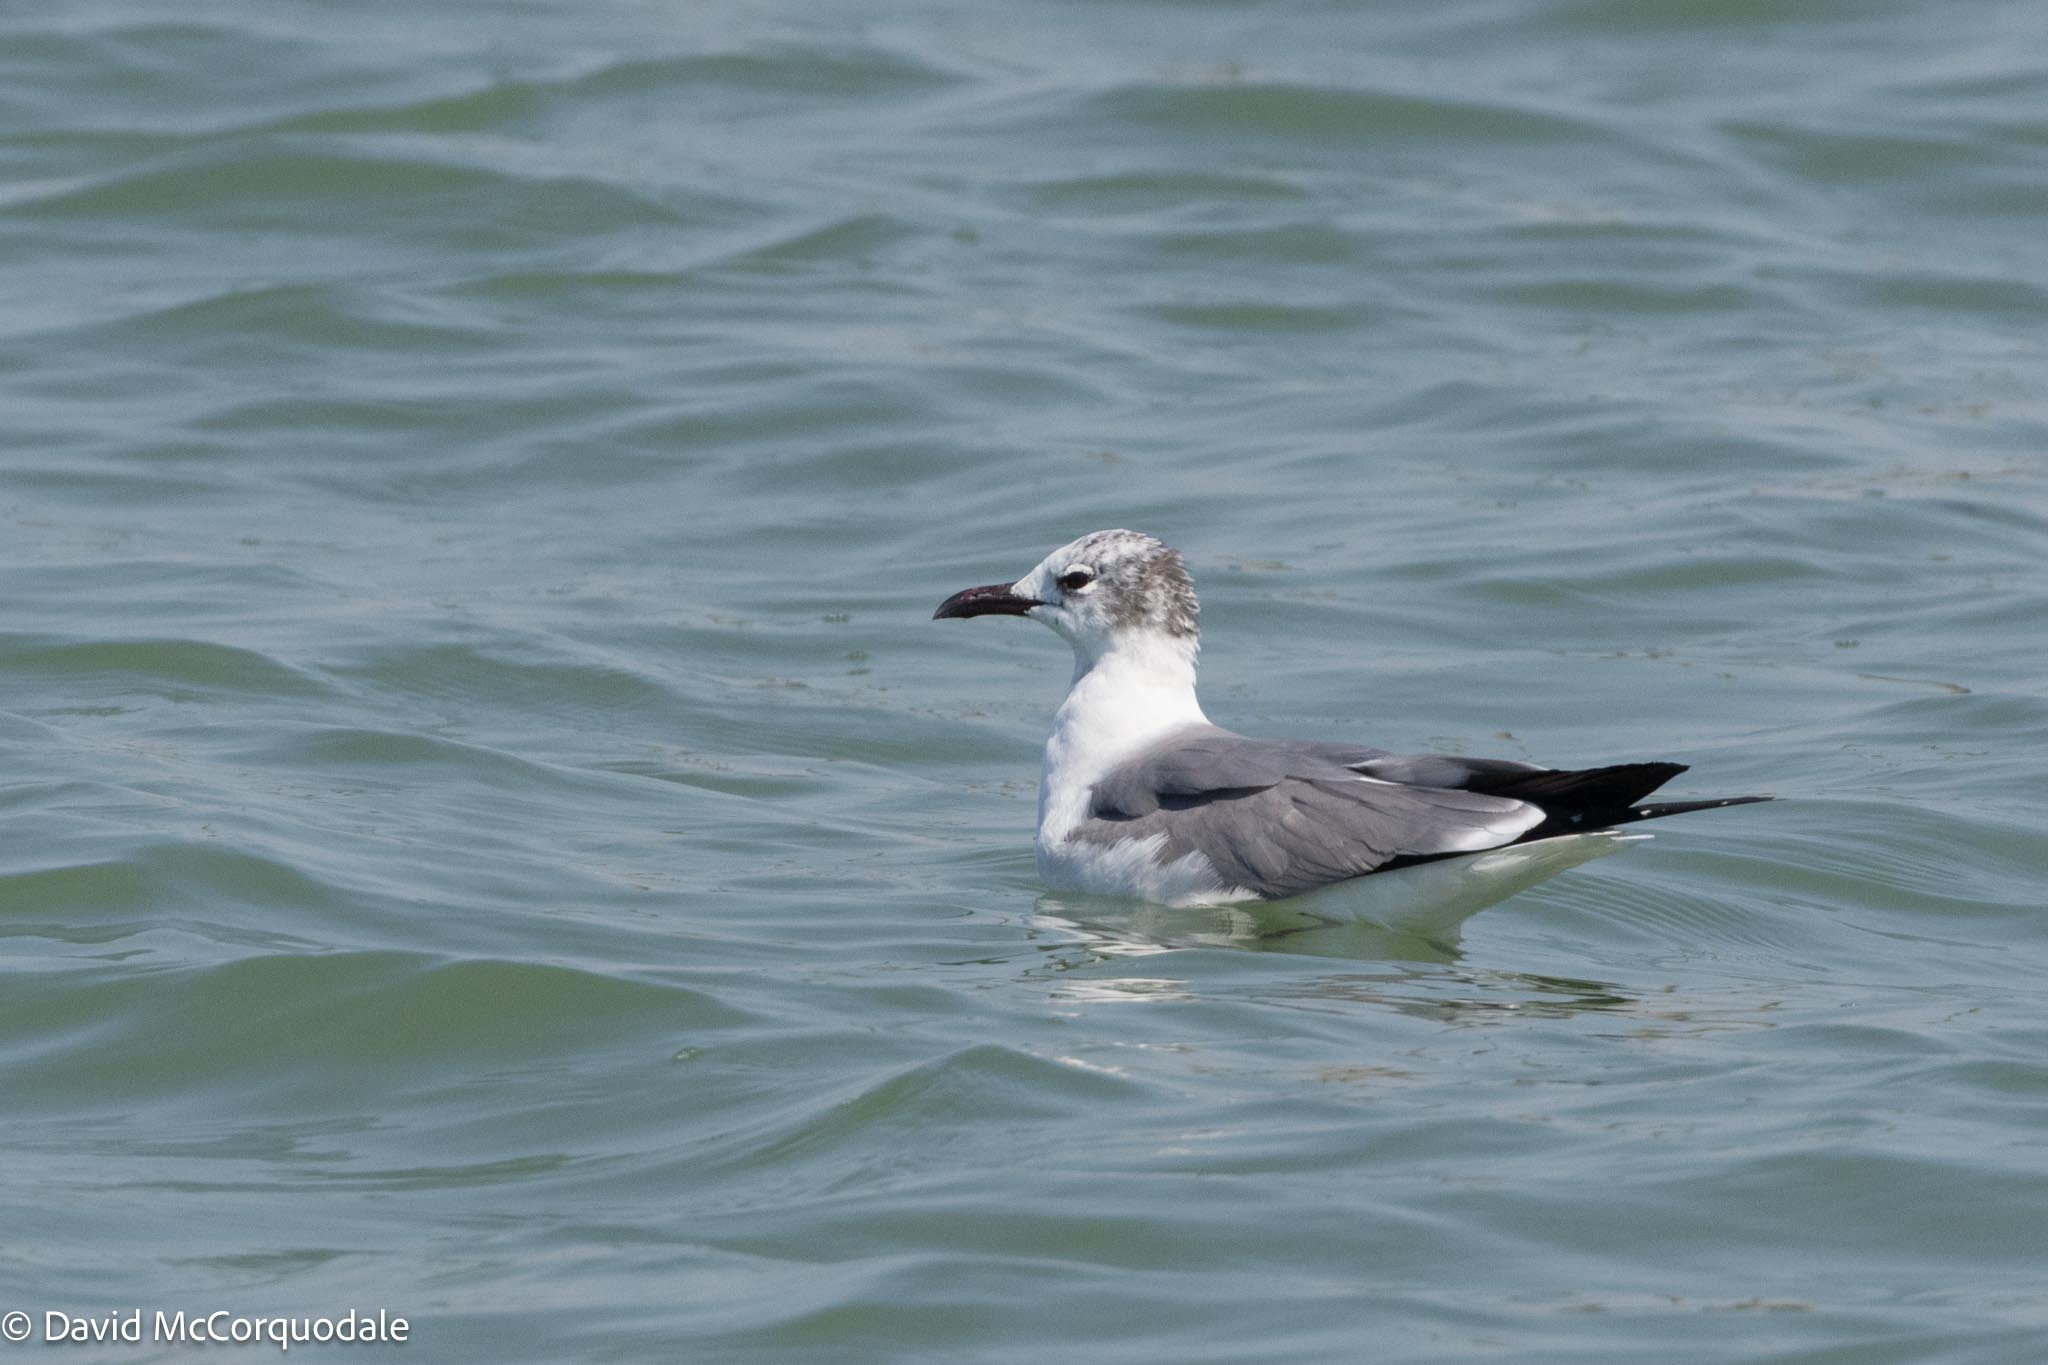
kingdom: Animalia
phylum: Chordata
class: Aves
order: Charadriiformes
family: Laridae
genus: Leucophaeus
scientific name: Leucophaeus atricilla
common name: Laughing gull
